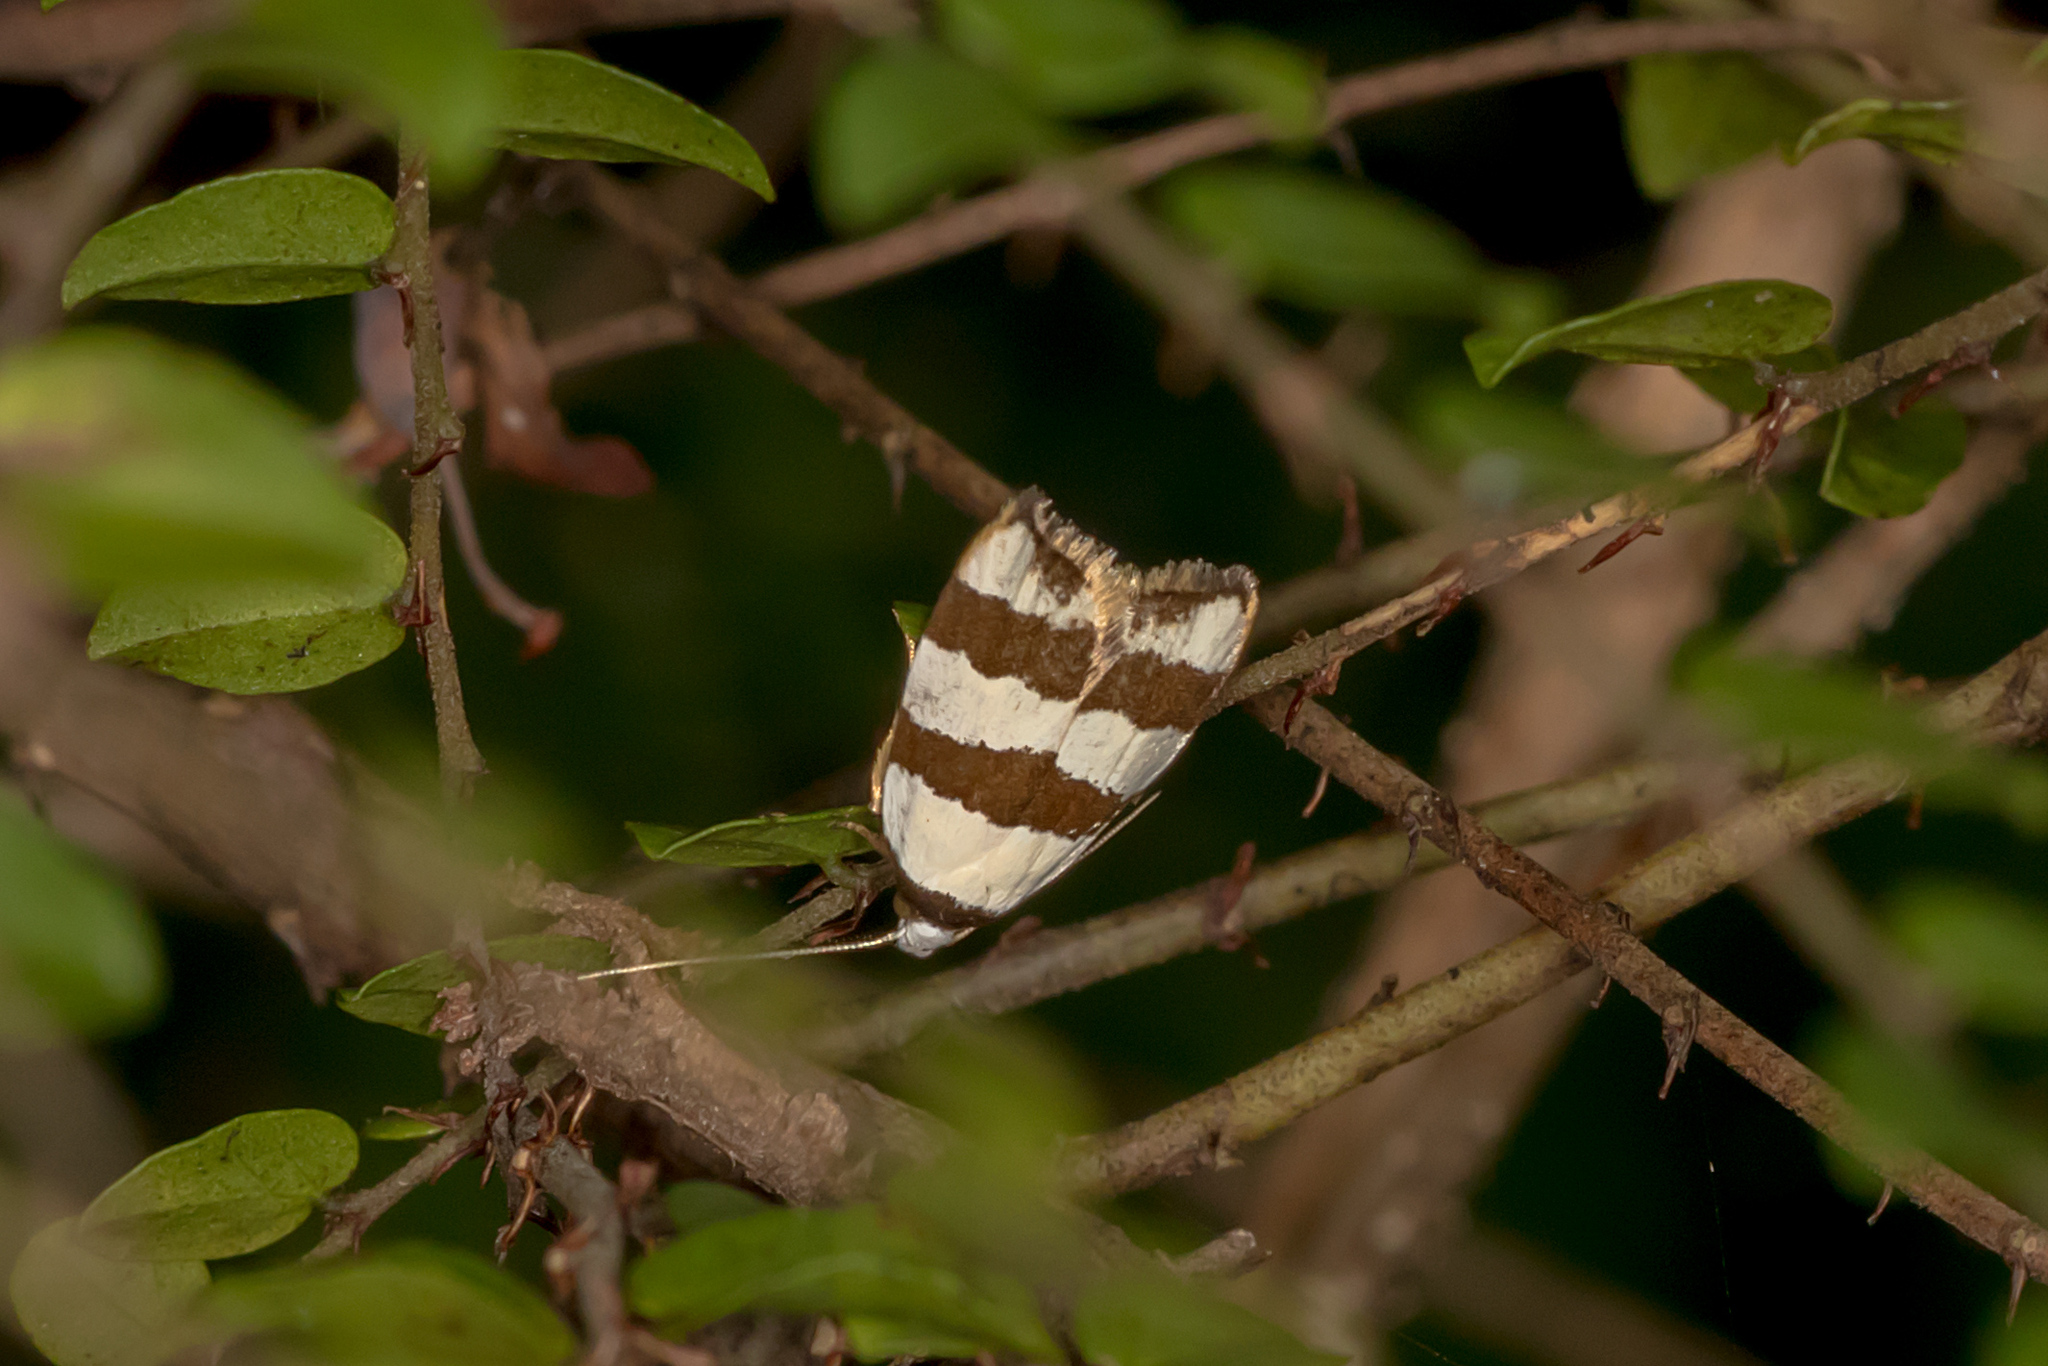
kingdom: Animalia
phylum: Arthropoda
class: Insecta
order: Lepidoptera
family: Oecophoridae
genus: Zonopetala
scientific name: Zonopetala clerota
